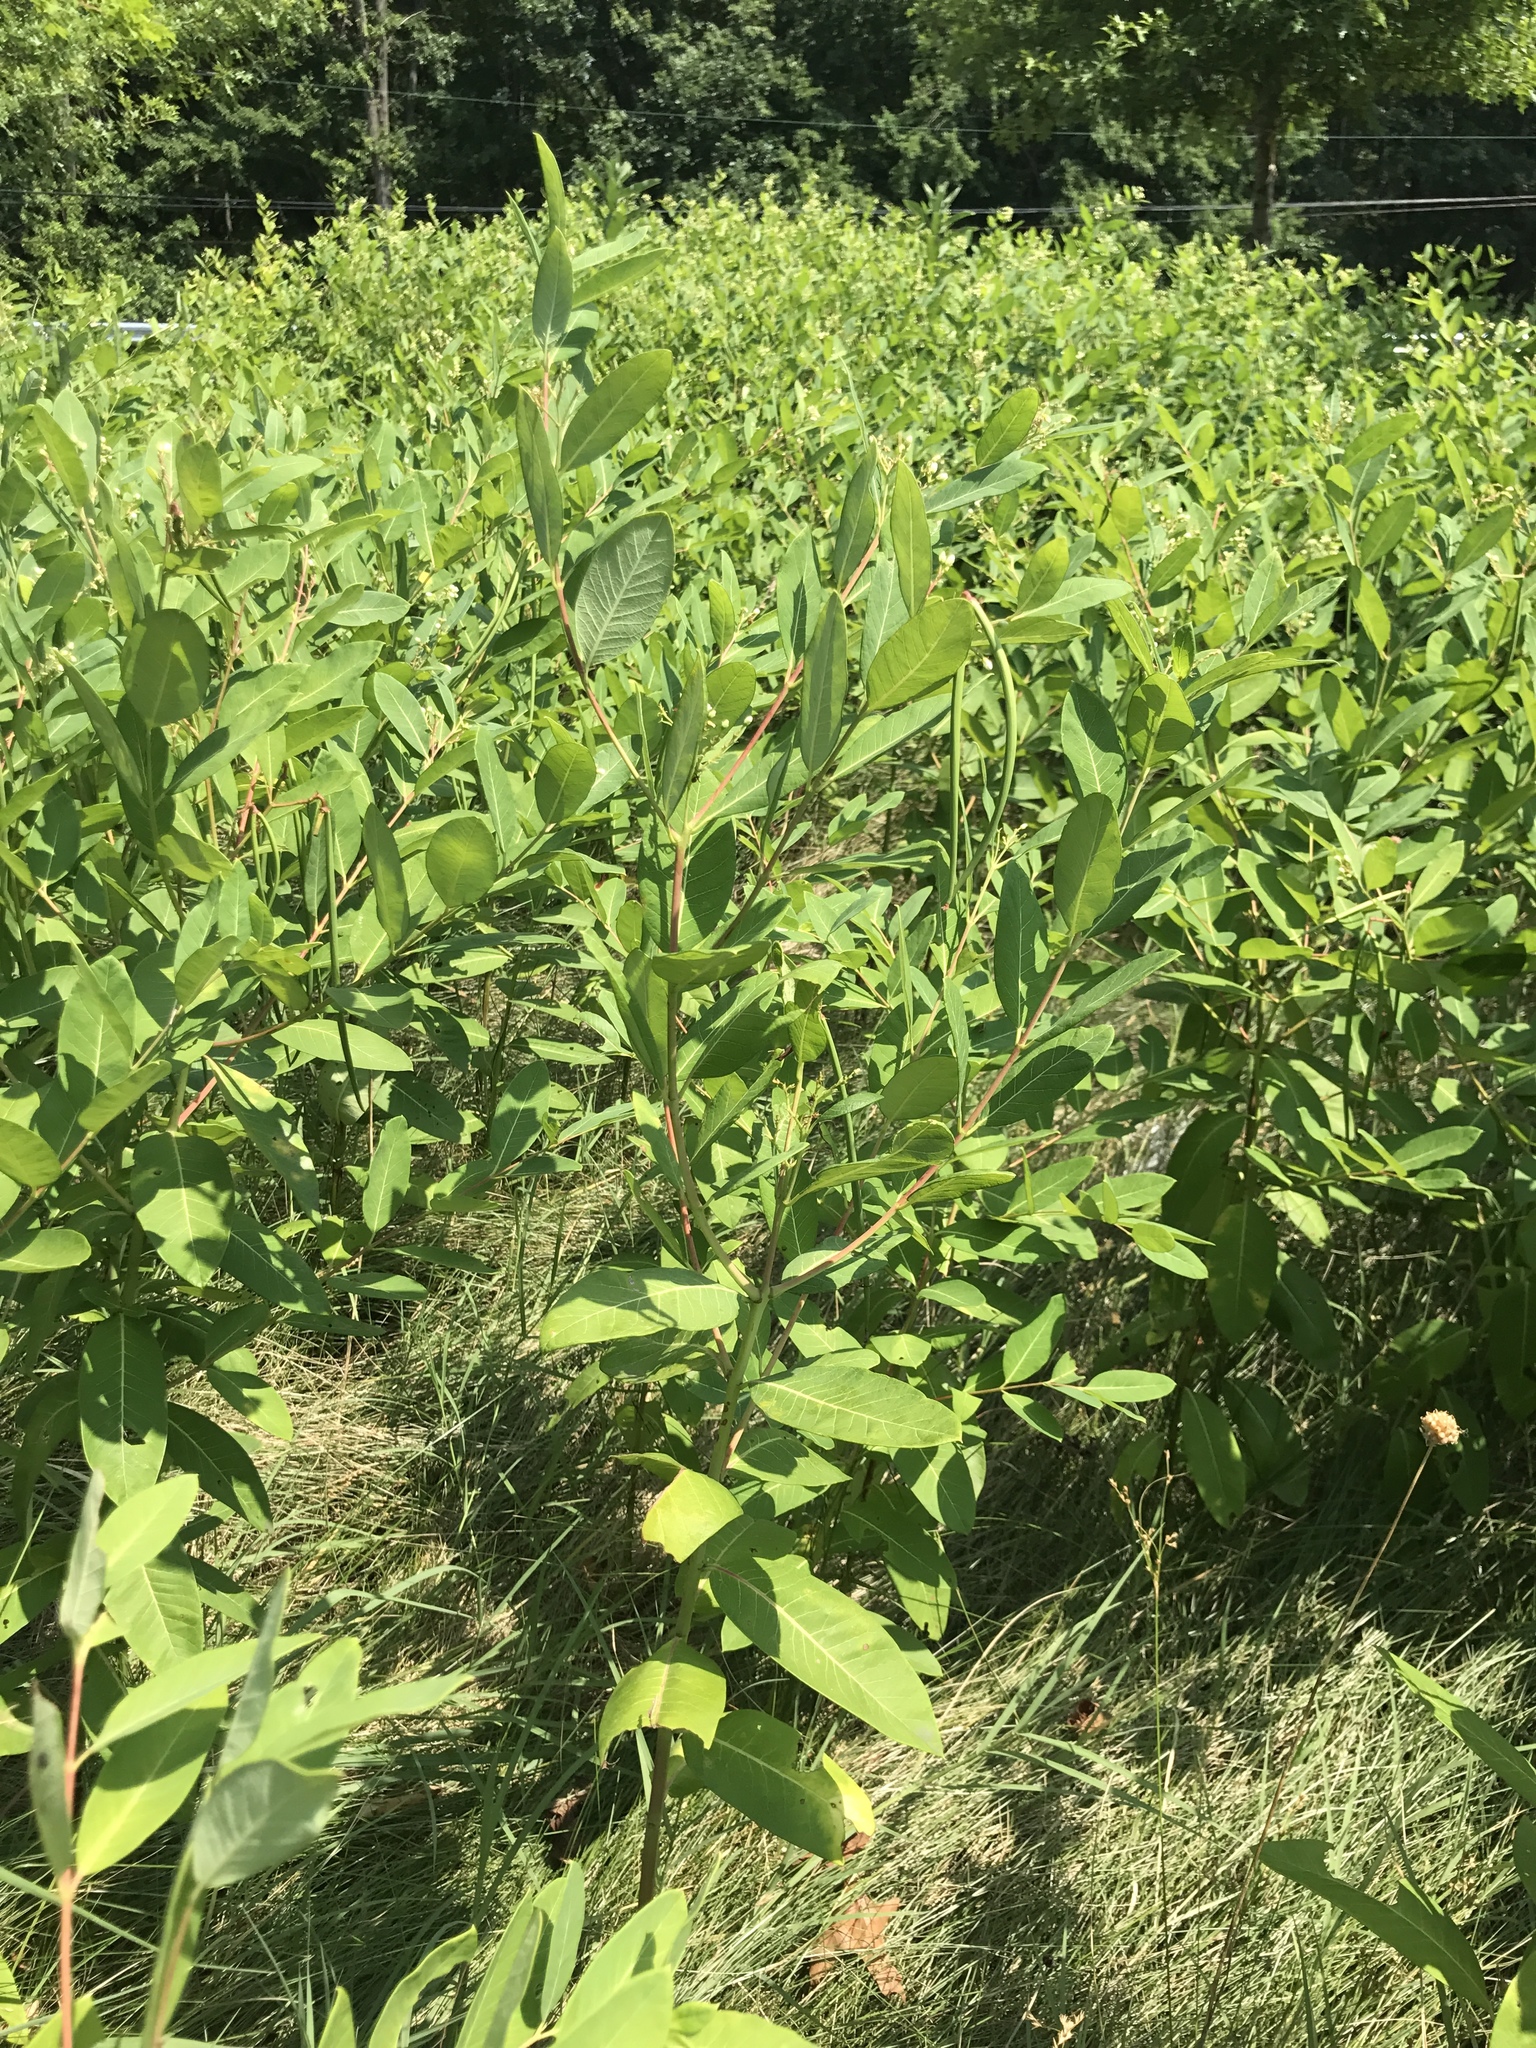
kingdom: Plantae
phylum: Tracheophyta
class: Magnoliopsida
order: Gentianales
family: Apocynaceae
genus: Apocynum
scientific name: Apocynum cannabinum
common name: Hemp dogbane
